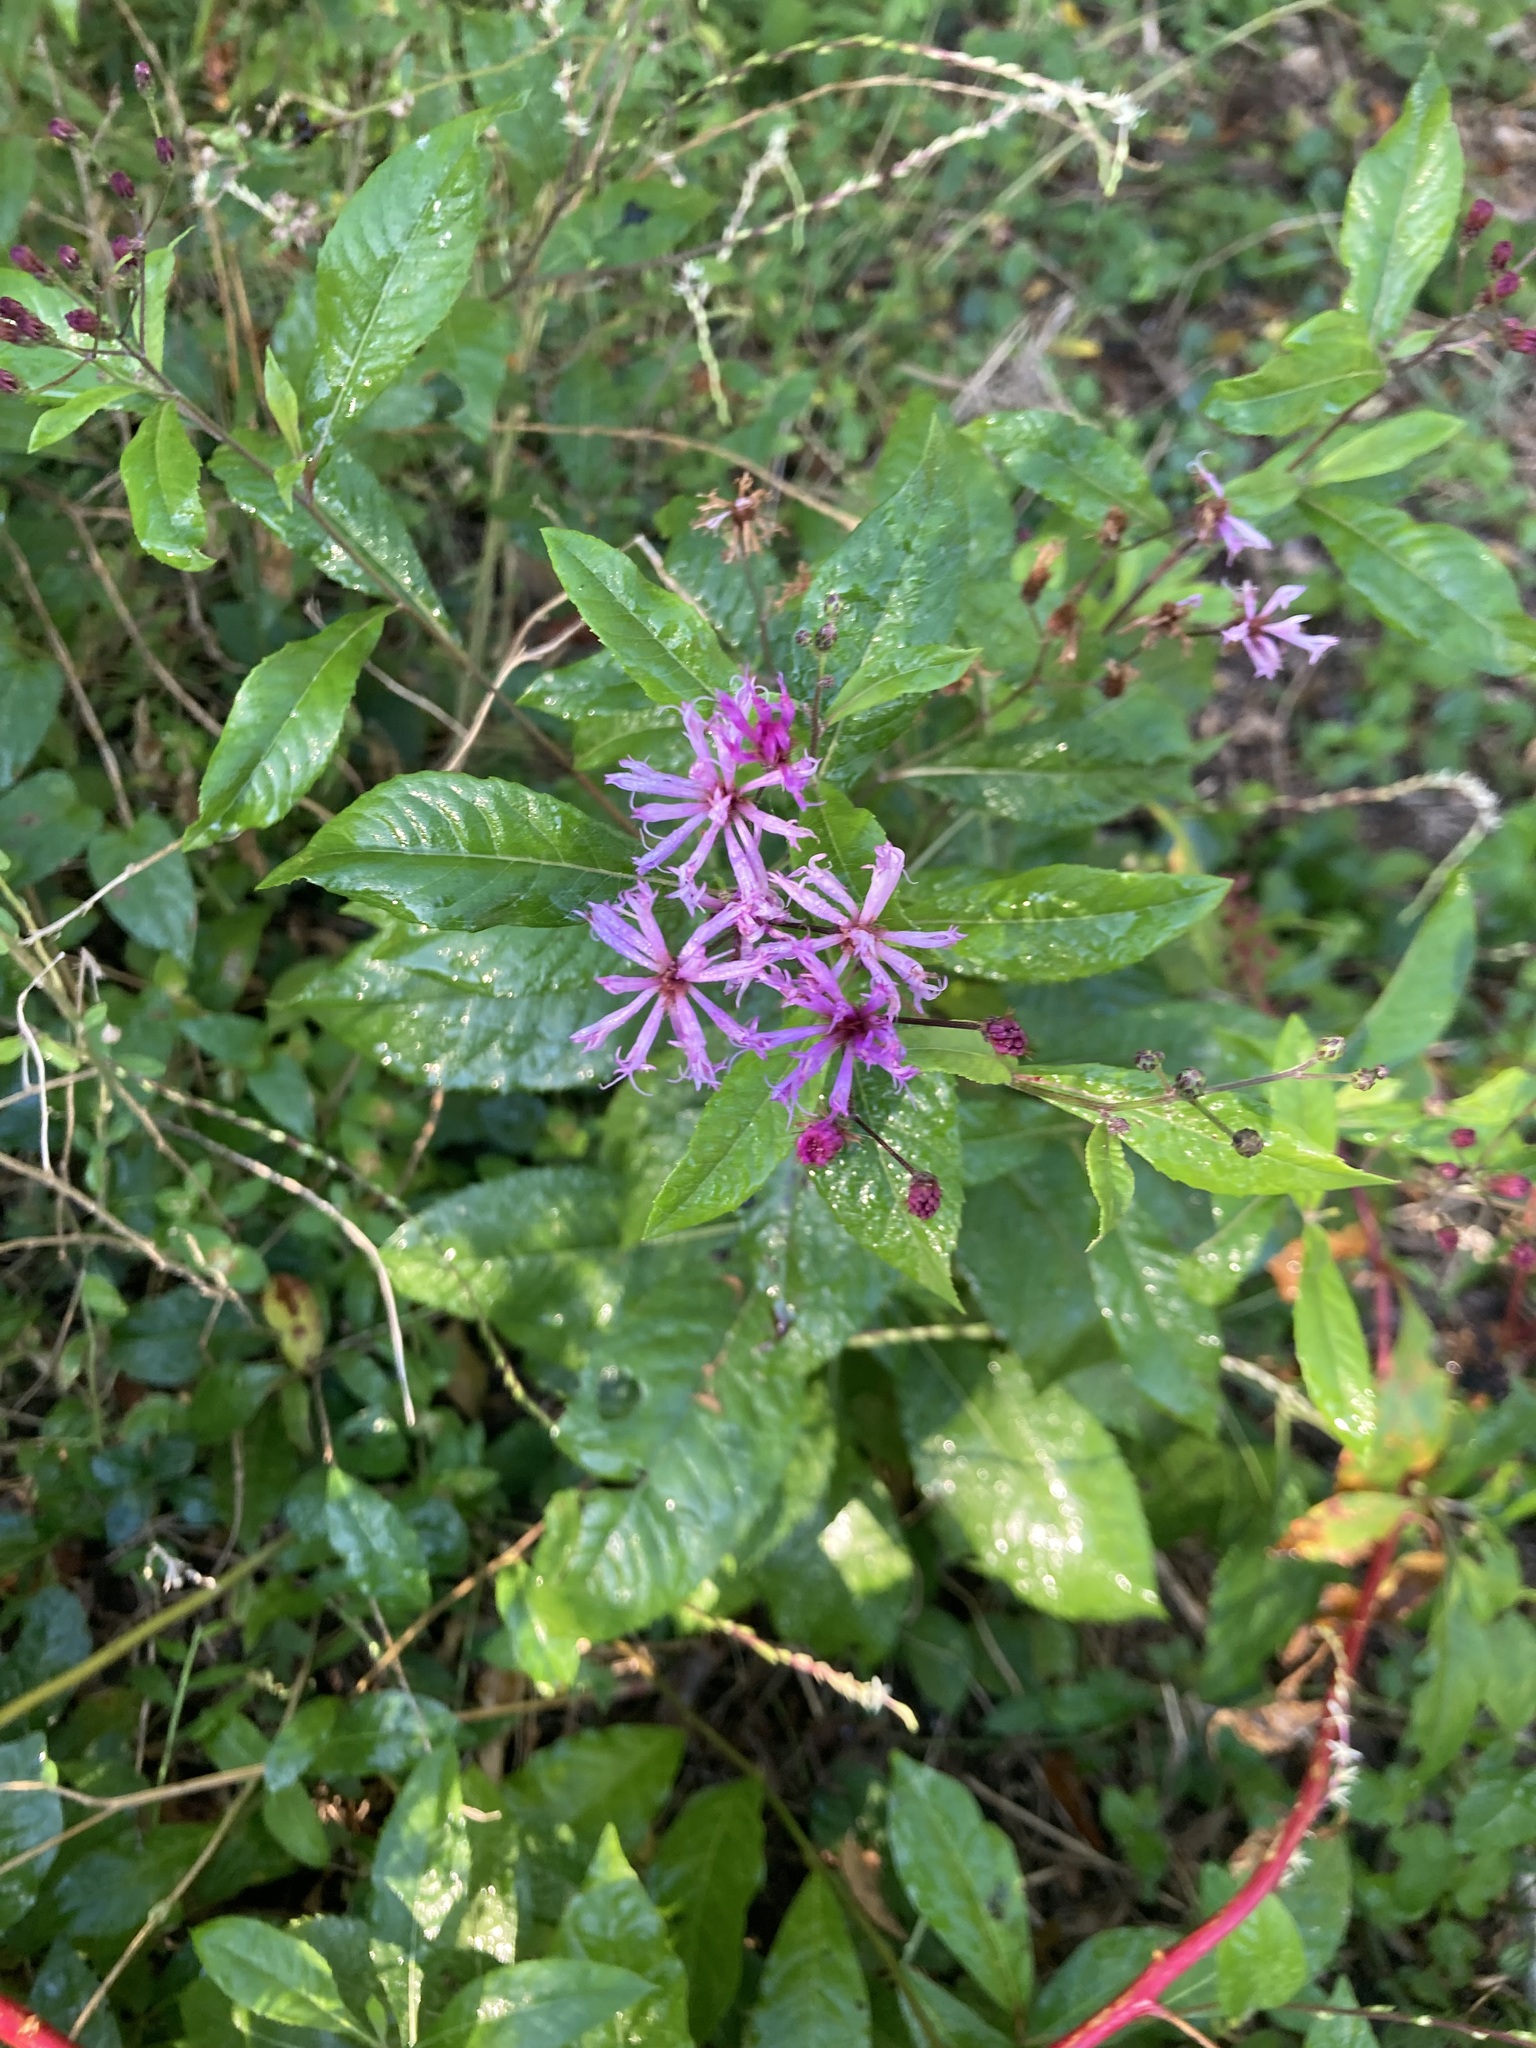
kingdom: Plantae
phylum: Tracheophyta
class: Magnoliopsida
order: Asterales
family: Asteraceae
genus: Vernonia
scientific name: Vernonia gigantea
